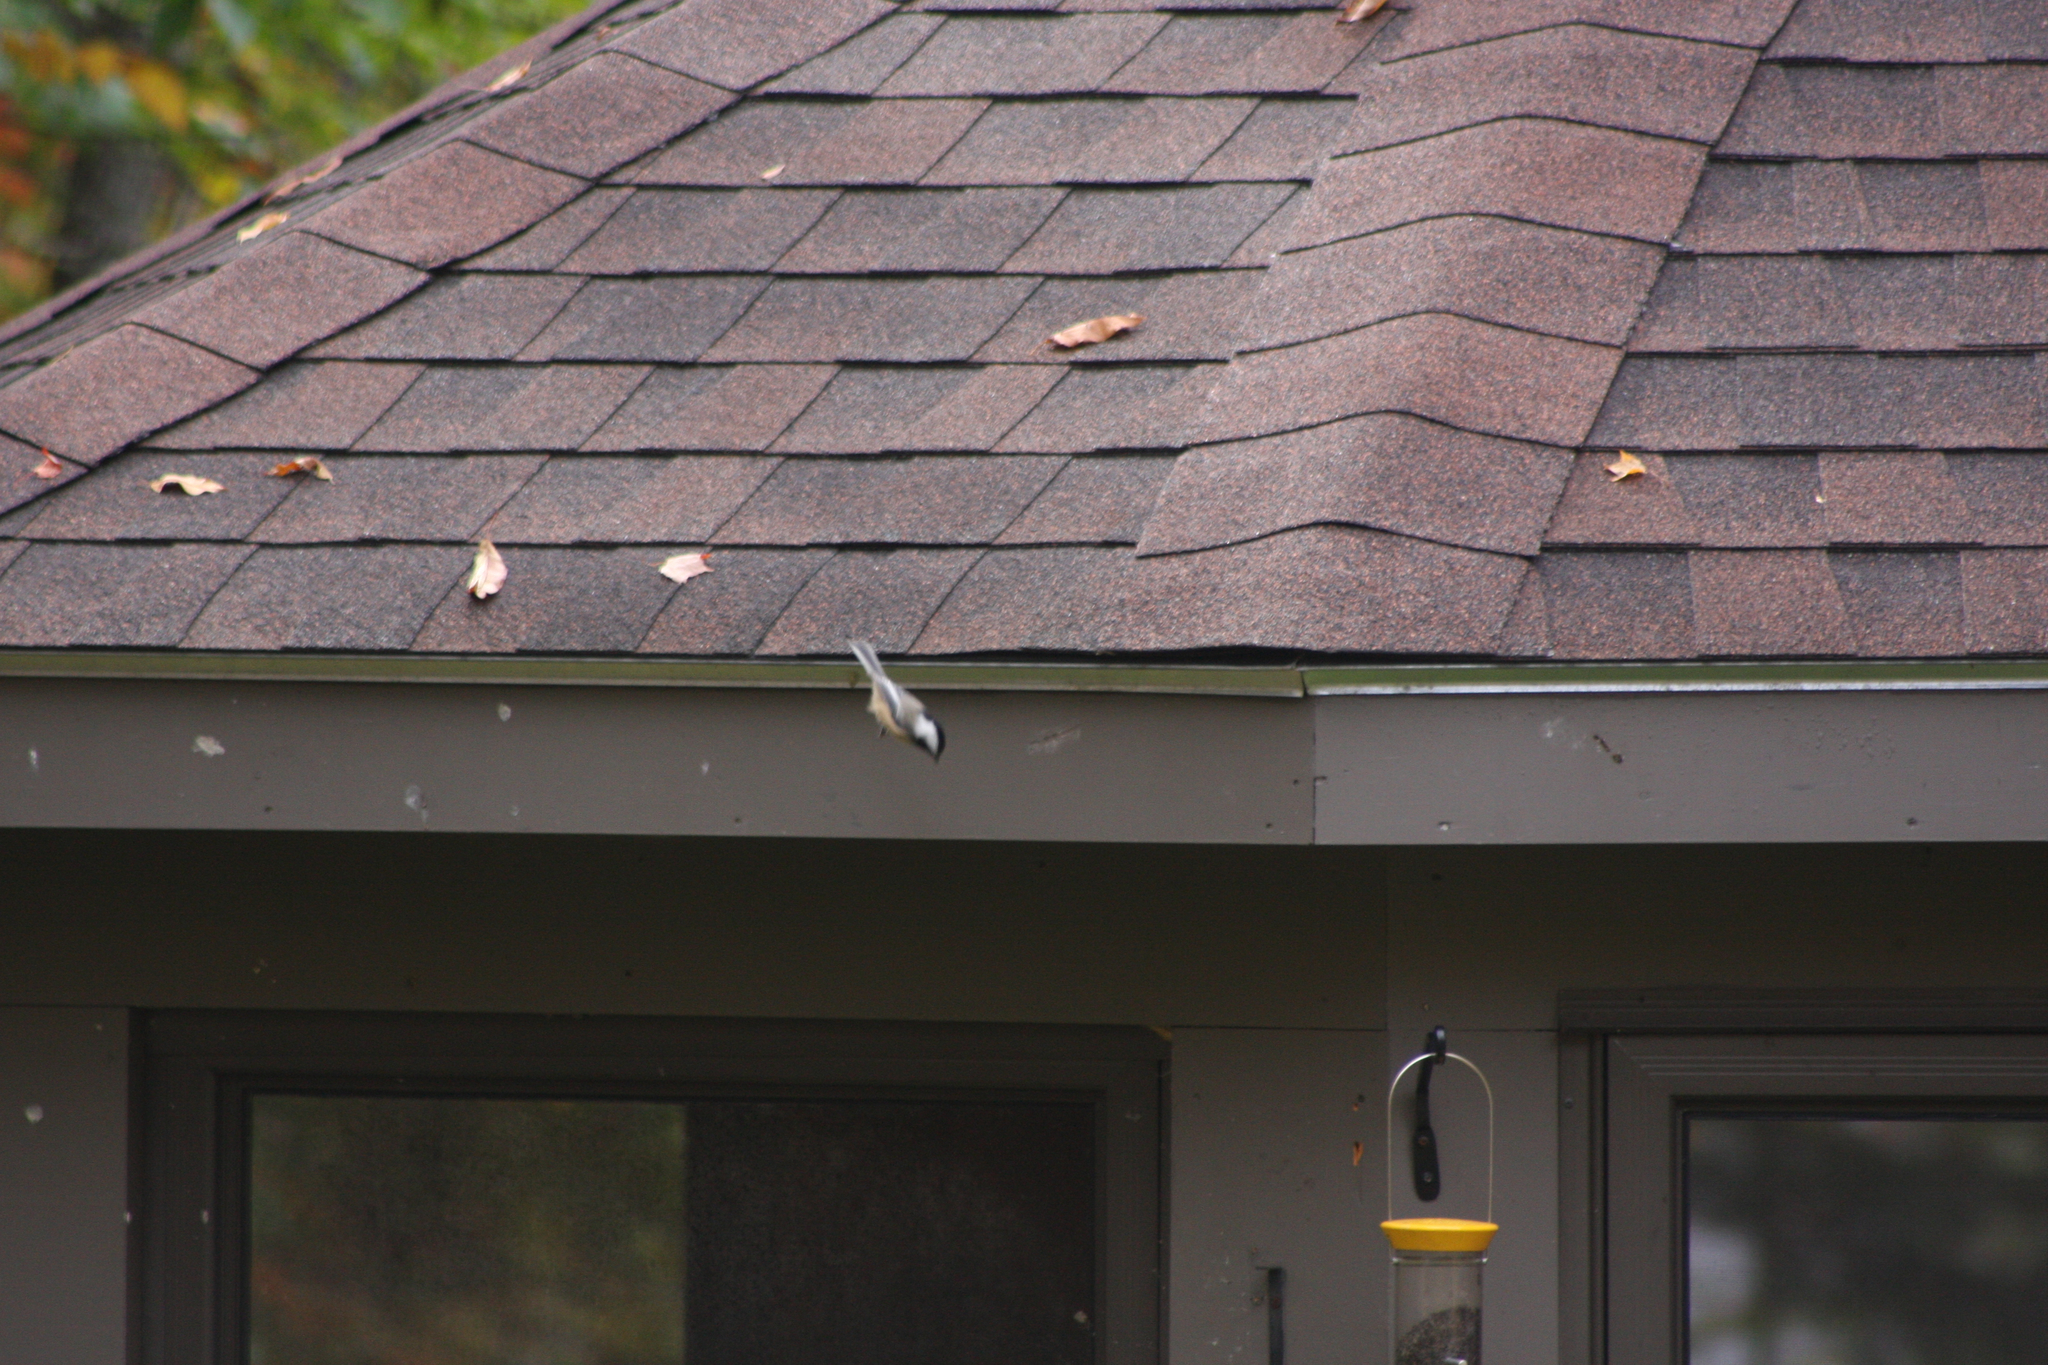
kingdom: Animalia
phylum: Chordata
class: Aves
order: Passeriformes
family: Paridae
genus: Poecile
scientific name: Poecile atricapillus
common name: Black-capped chickadee
